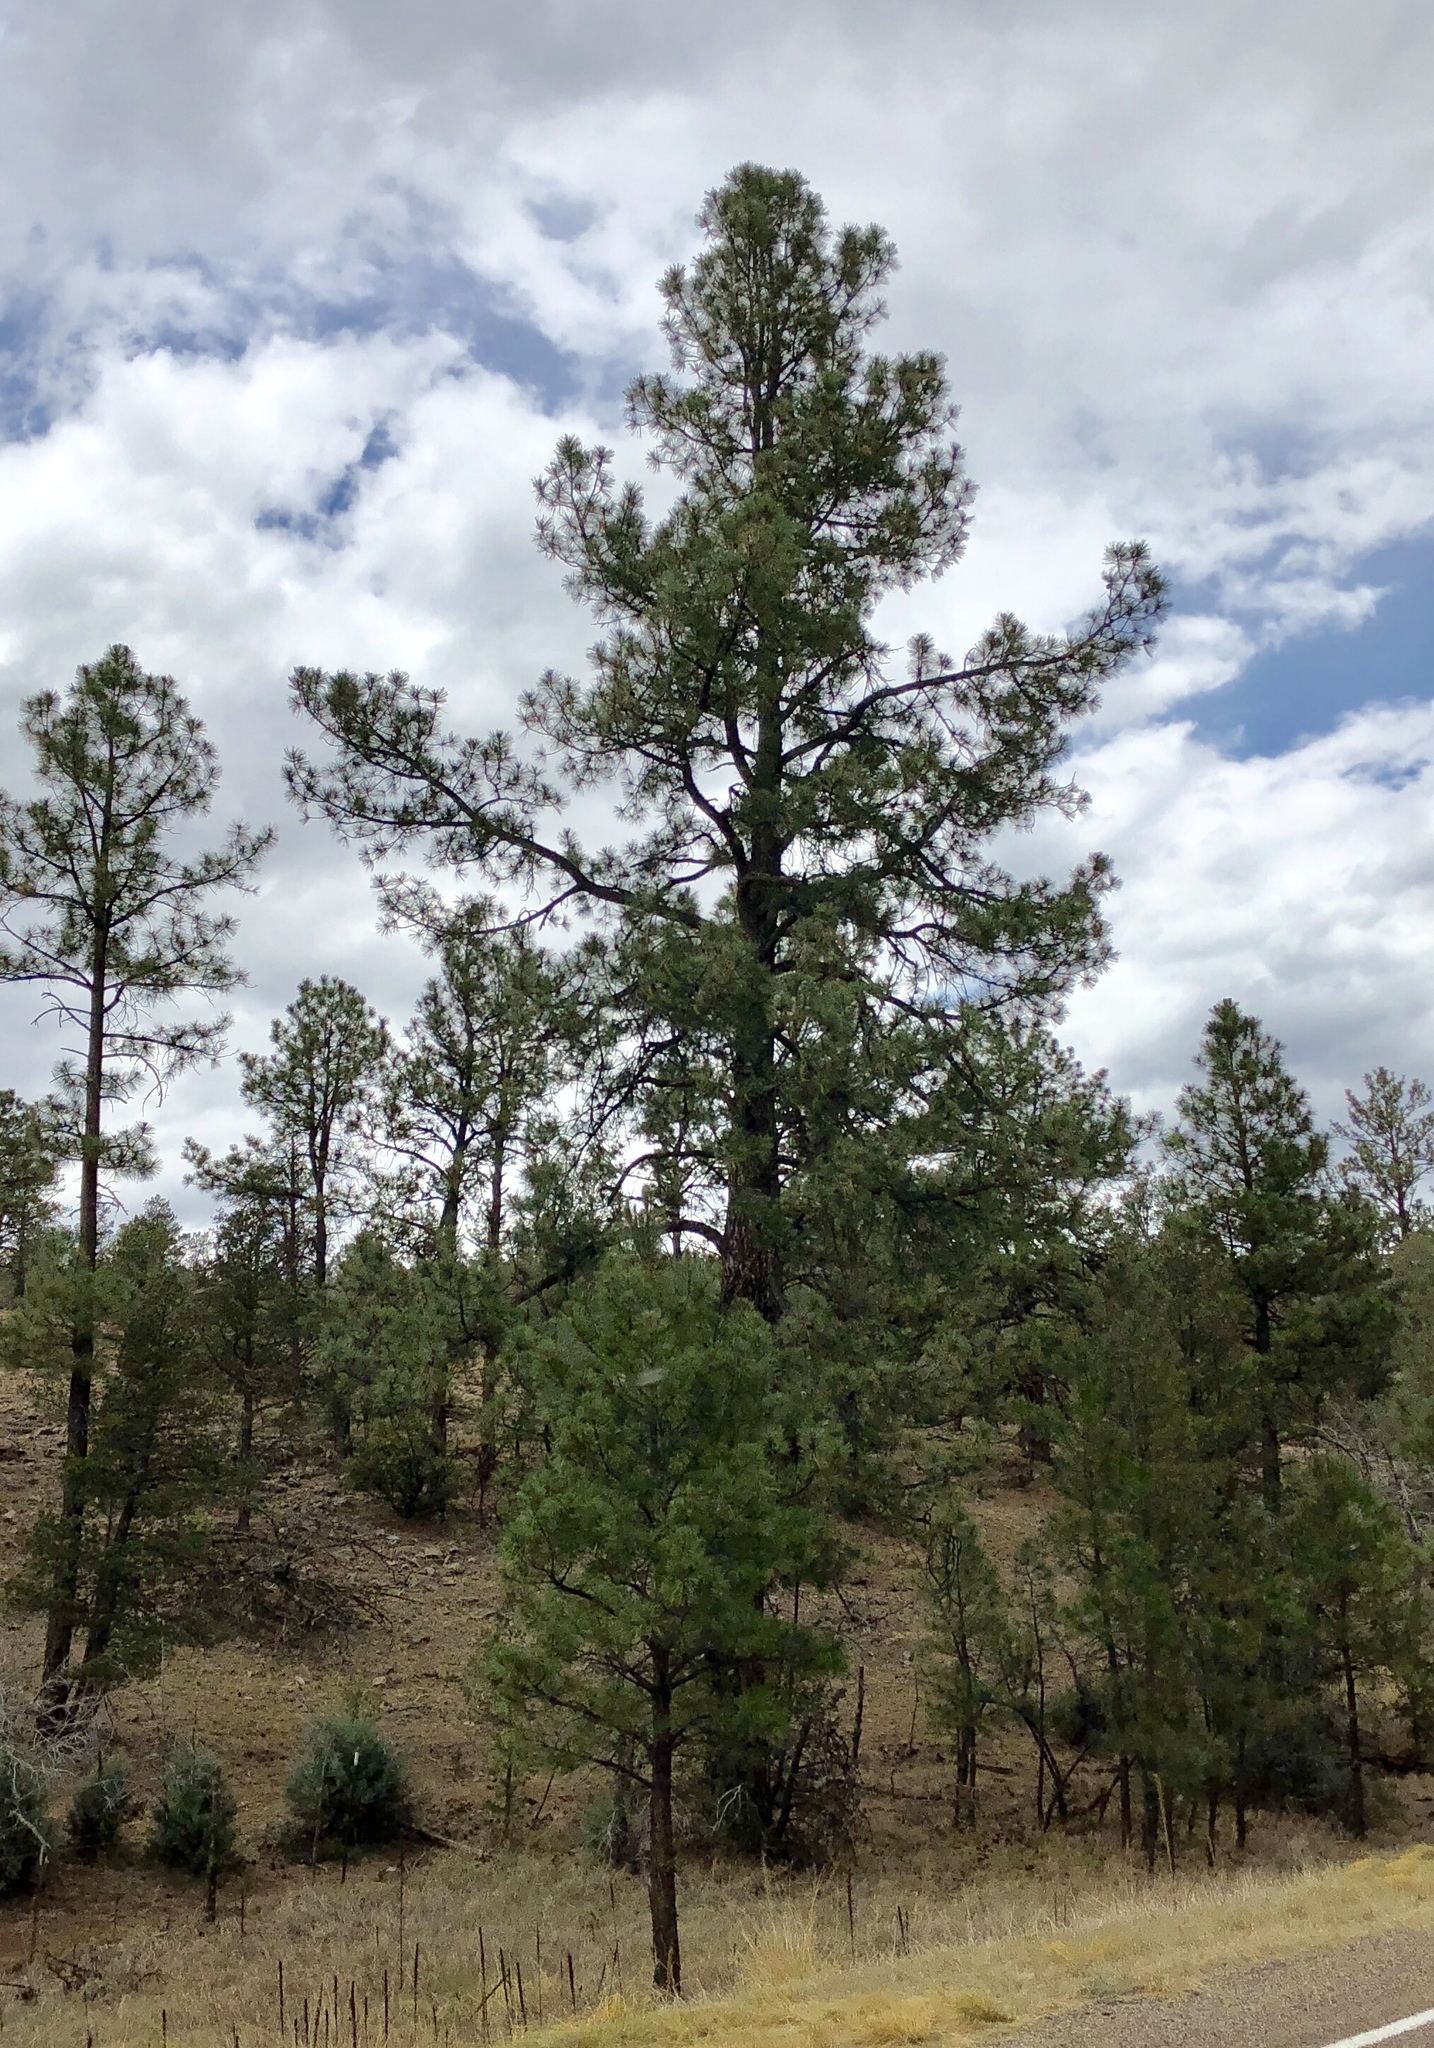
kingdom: Plantae
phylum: Tracheophyta
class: Pinopsida
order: Pinales
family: Pinaceae
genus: Pinus
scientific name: Pinus ponderosa
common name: Western yellow-pine
